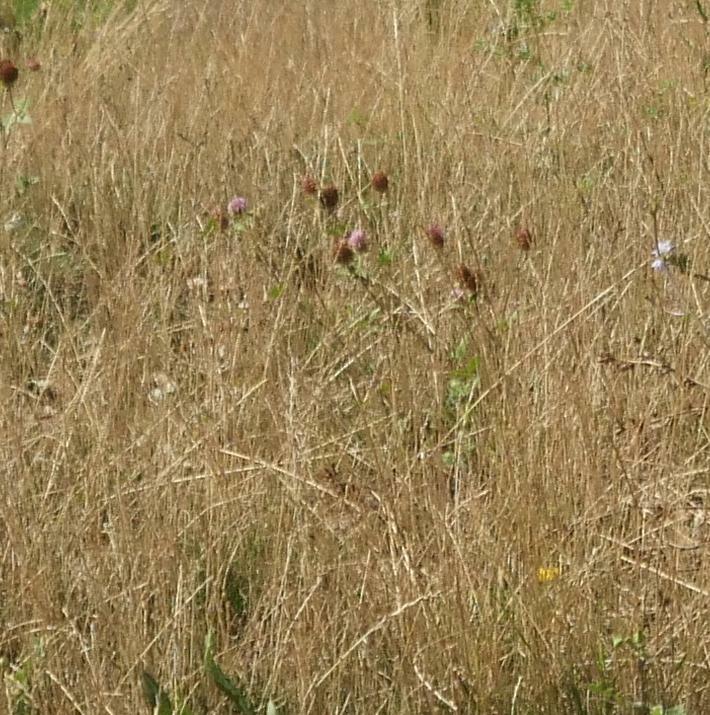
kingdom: Plantae
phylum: Tracheophyta
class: Magnoliopsida
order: Fabales
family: Fabaceae
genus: Trifolium
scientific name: Trifolium pratense
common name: Red clover
